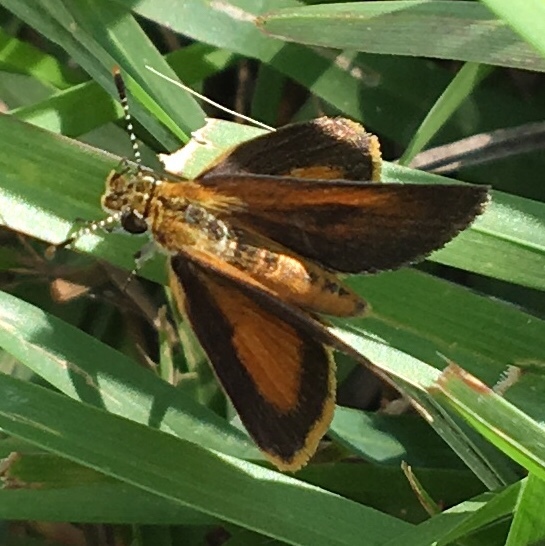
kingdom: Animalia
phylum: Arthropoda
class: Insecta
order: Lepidoptera
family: Hesperiidae
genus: Ancyloxypha
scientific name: Ancyloxypha numitor
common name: Least skipper
